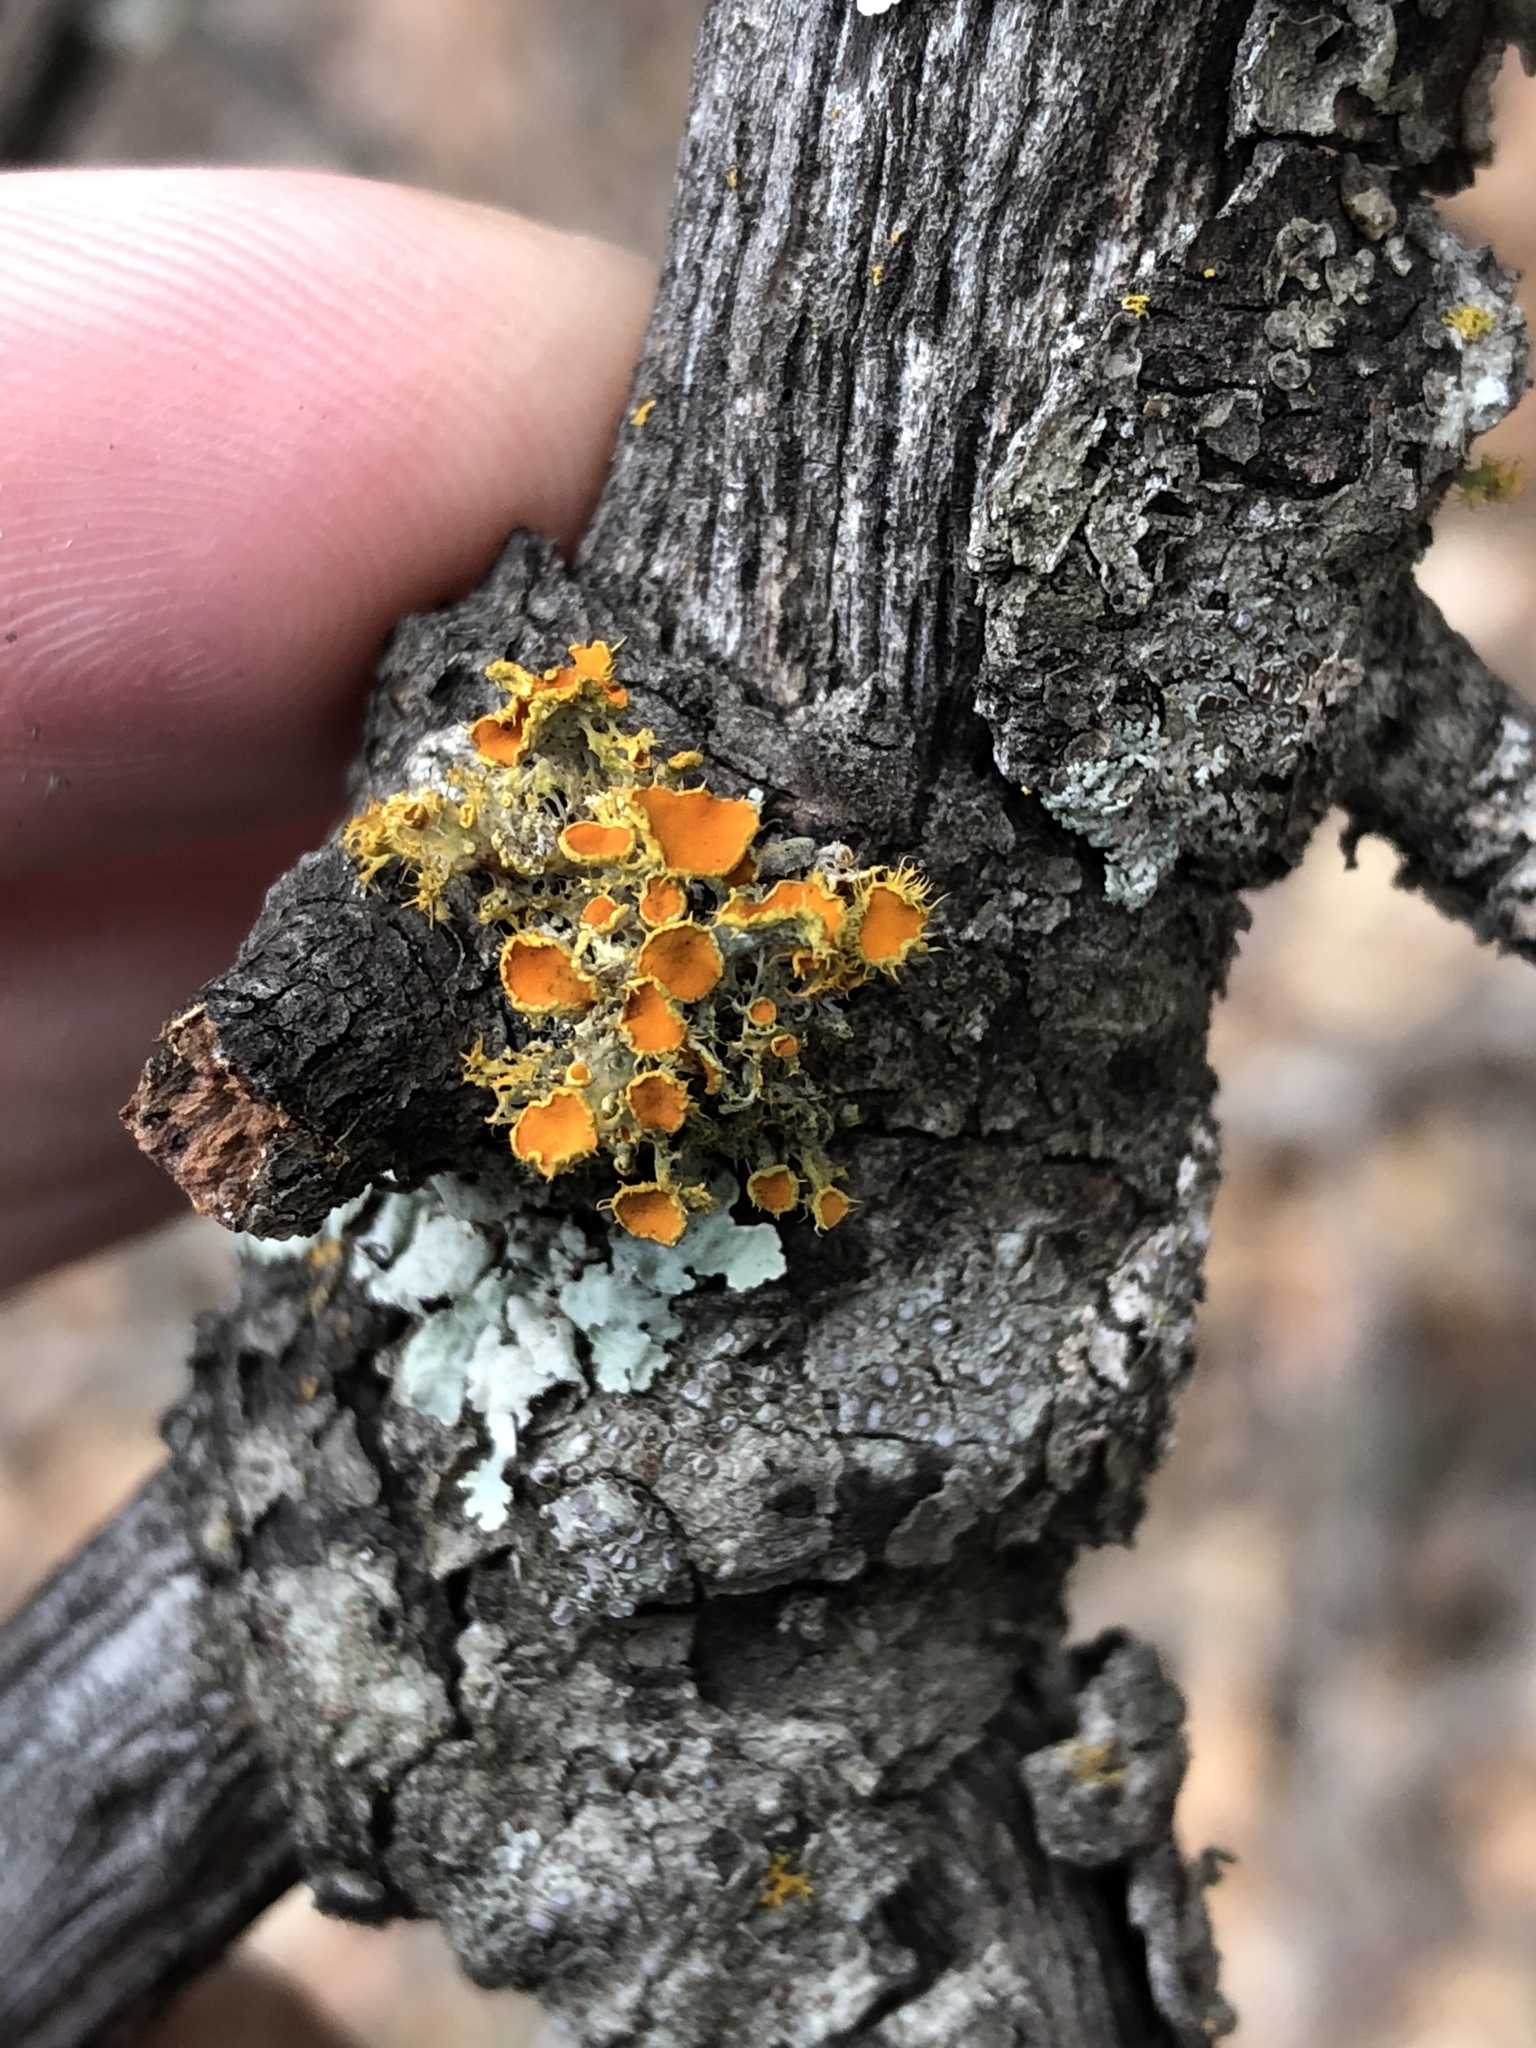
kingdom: Fungi
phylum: Ascomycota
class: Lecanoromycetes
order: Teloschistales
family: Teloschistaceae
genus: Niorma
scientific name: Niorma chrysophthalma
